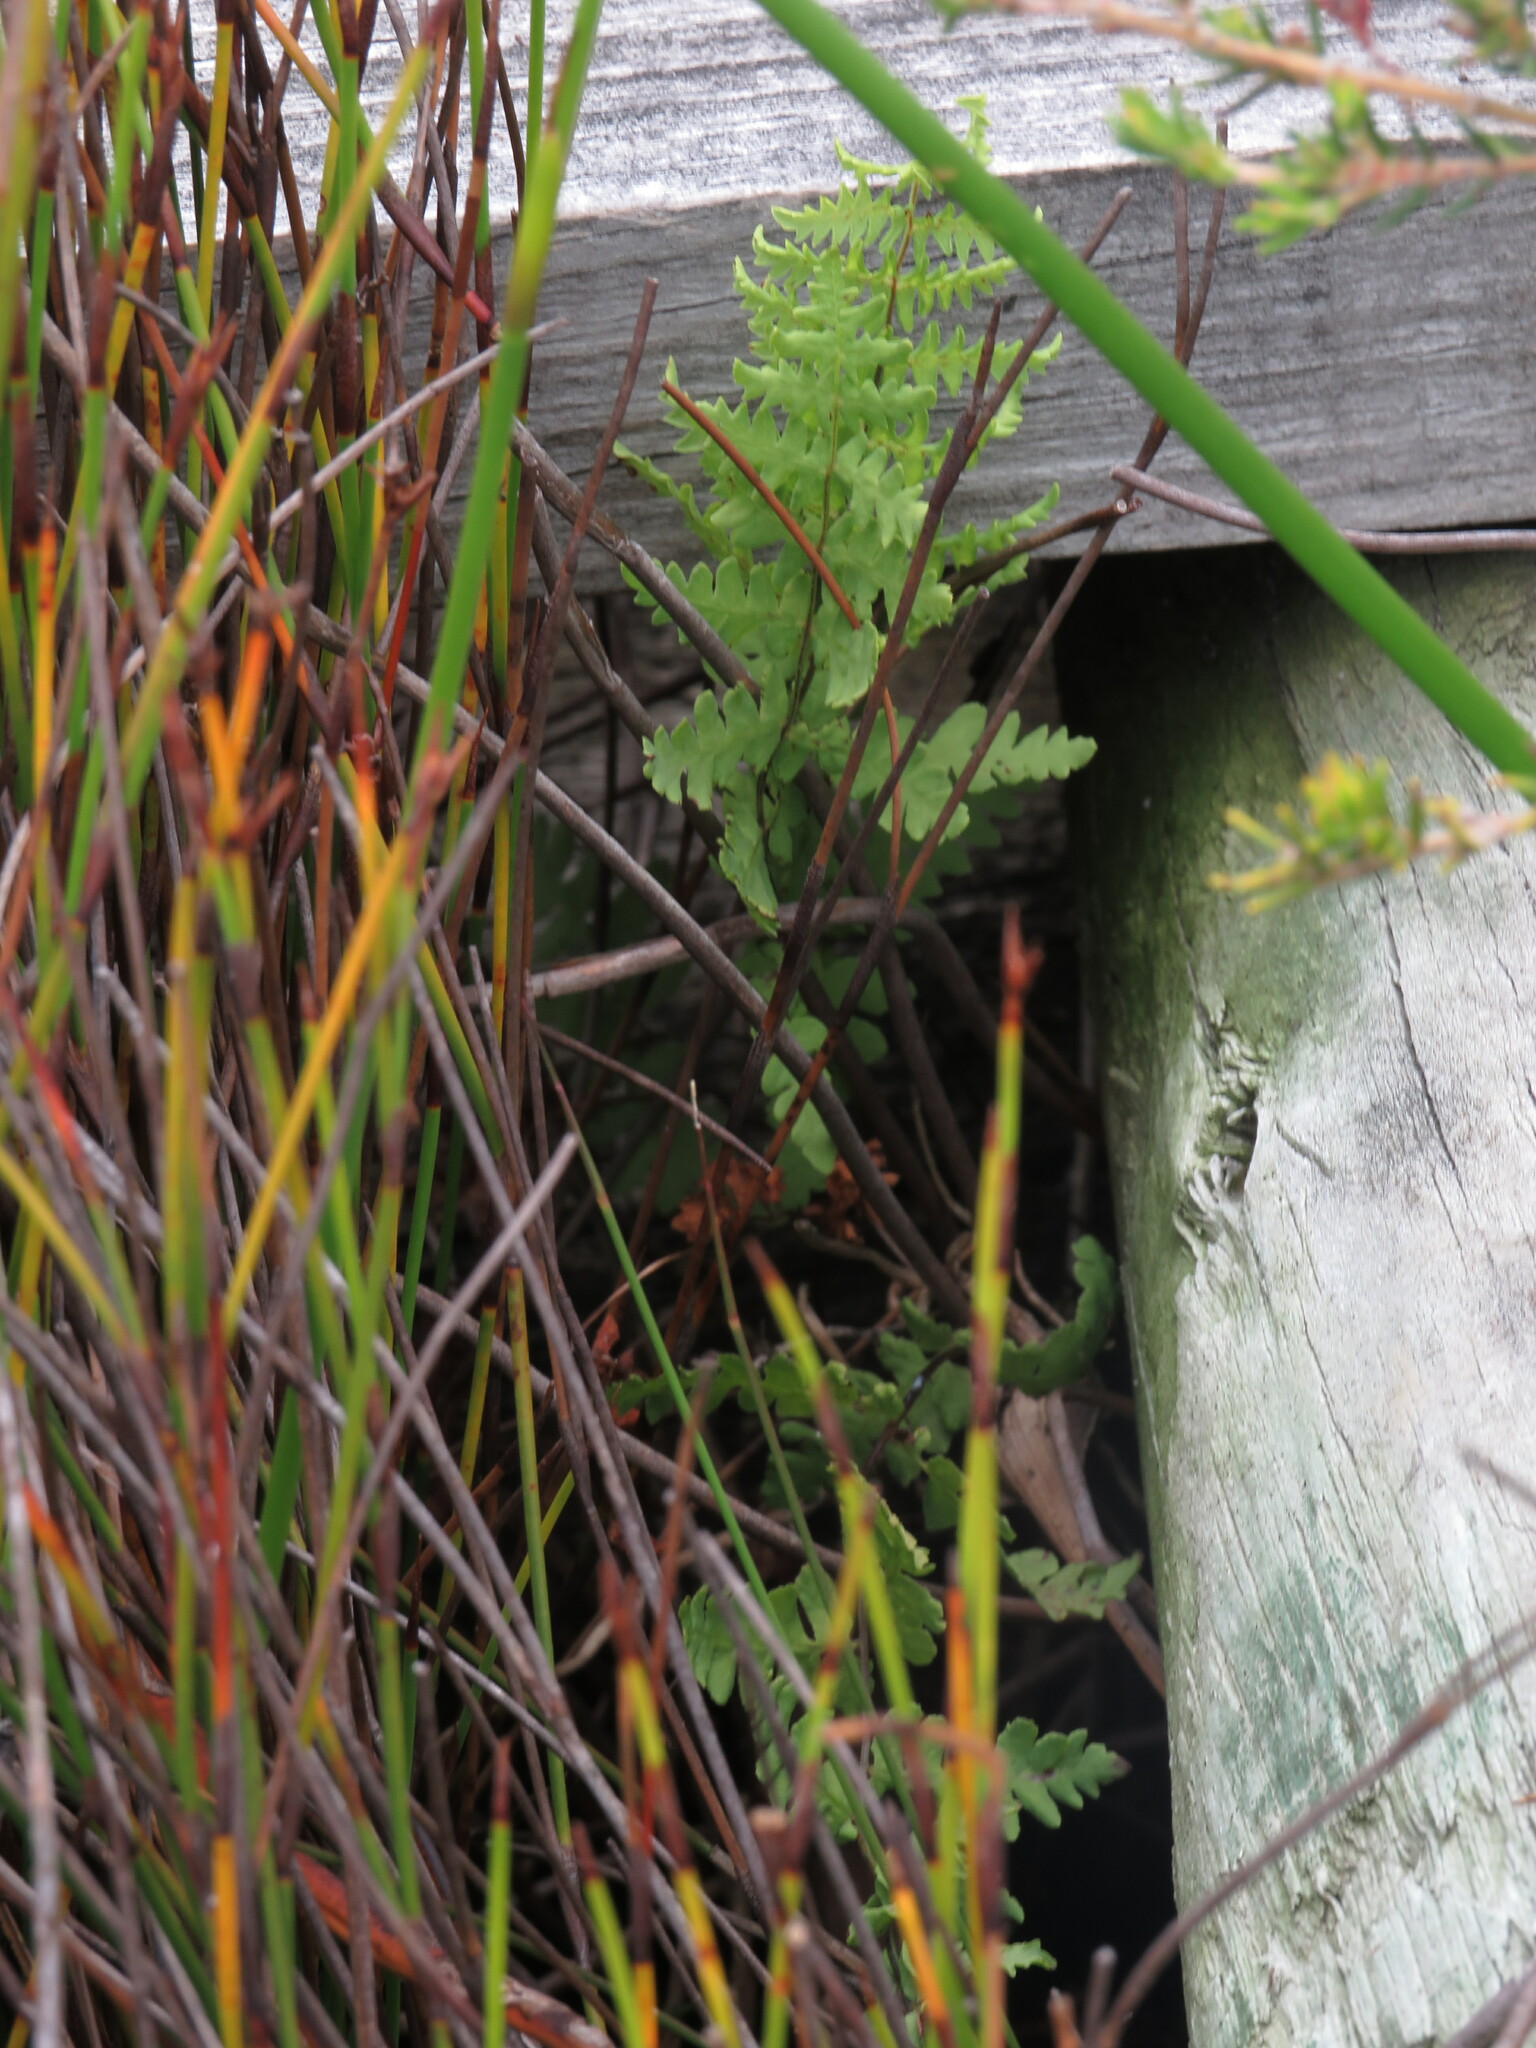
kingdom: Plantae
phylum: Tracheophyta
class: Polypodiopsida
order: Polypodiales
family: Thelypteridaceae
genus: Thelypteris
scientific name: Thelypteris confluens
